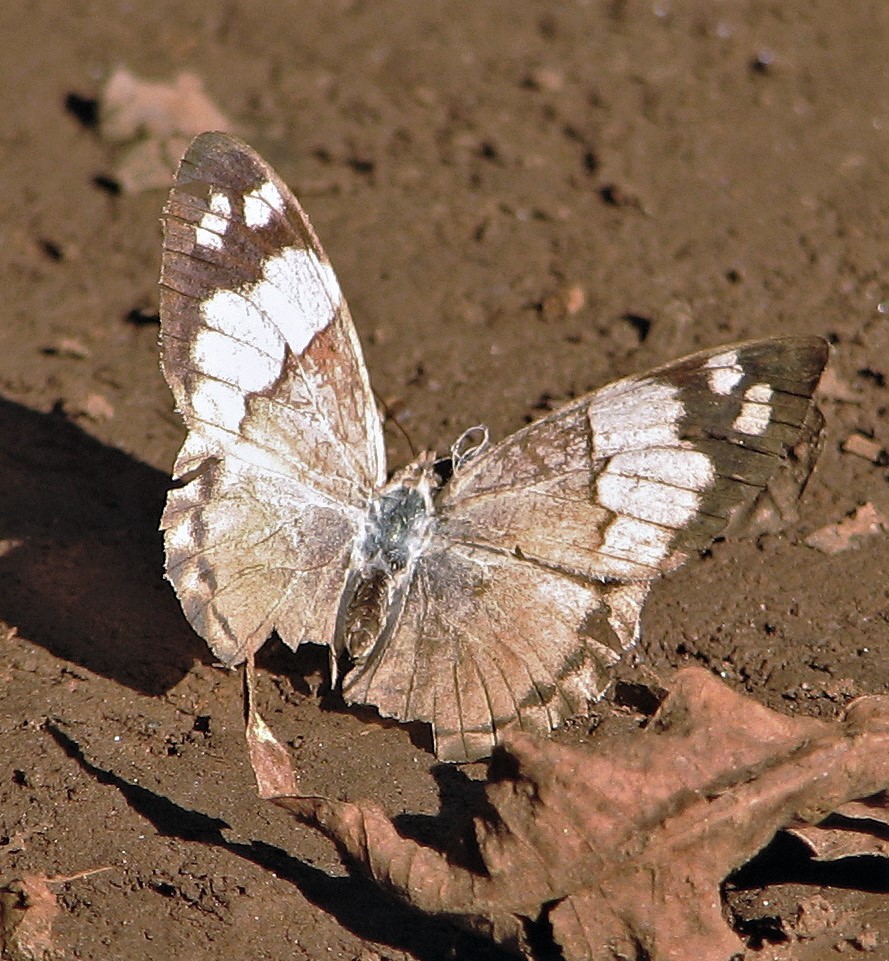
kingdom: Animalia
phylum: Arthropoda
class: Insecta
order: Lepidoptera
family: Nymphalidae
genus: Eunica
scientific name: Eunica eburnea
